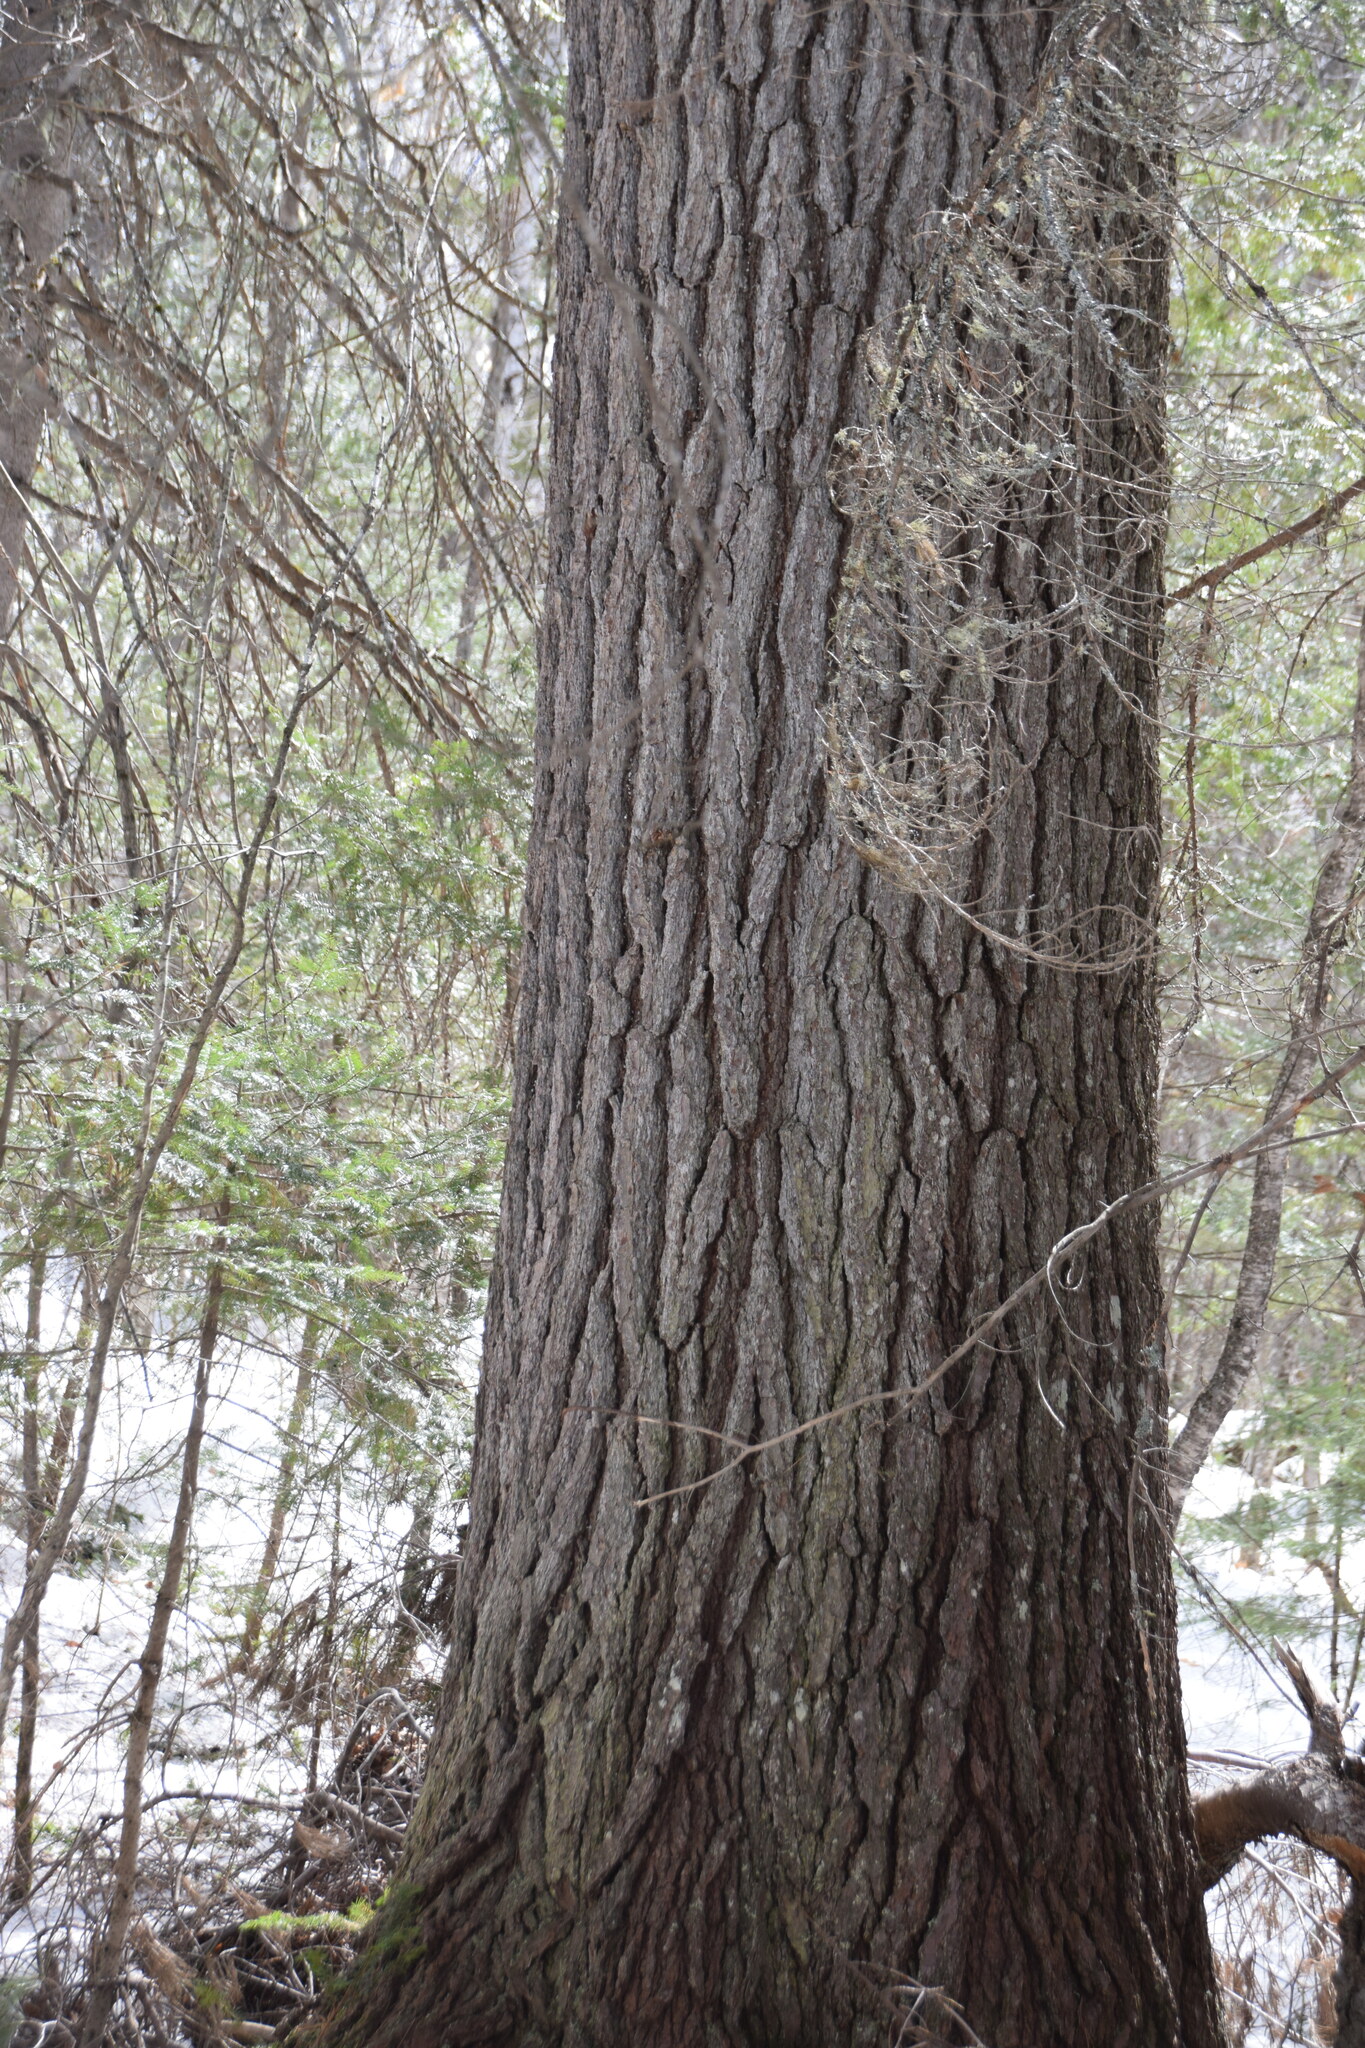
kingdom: Plantae
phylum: Tracheophyta
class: Pinopsida
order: Pinales
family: Pinaceae
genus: Pinus
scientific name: Pinus strobus
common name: Weymouth pine
